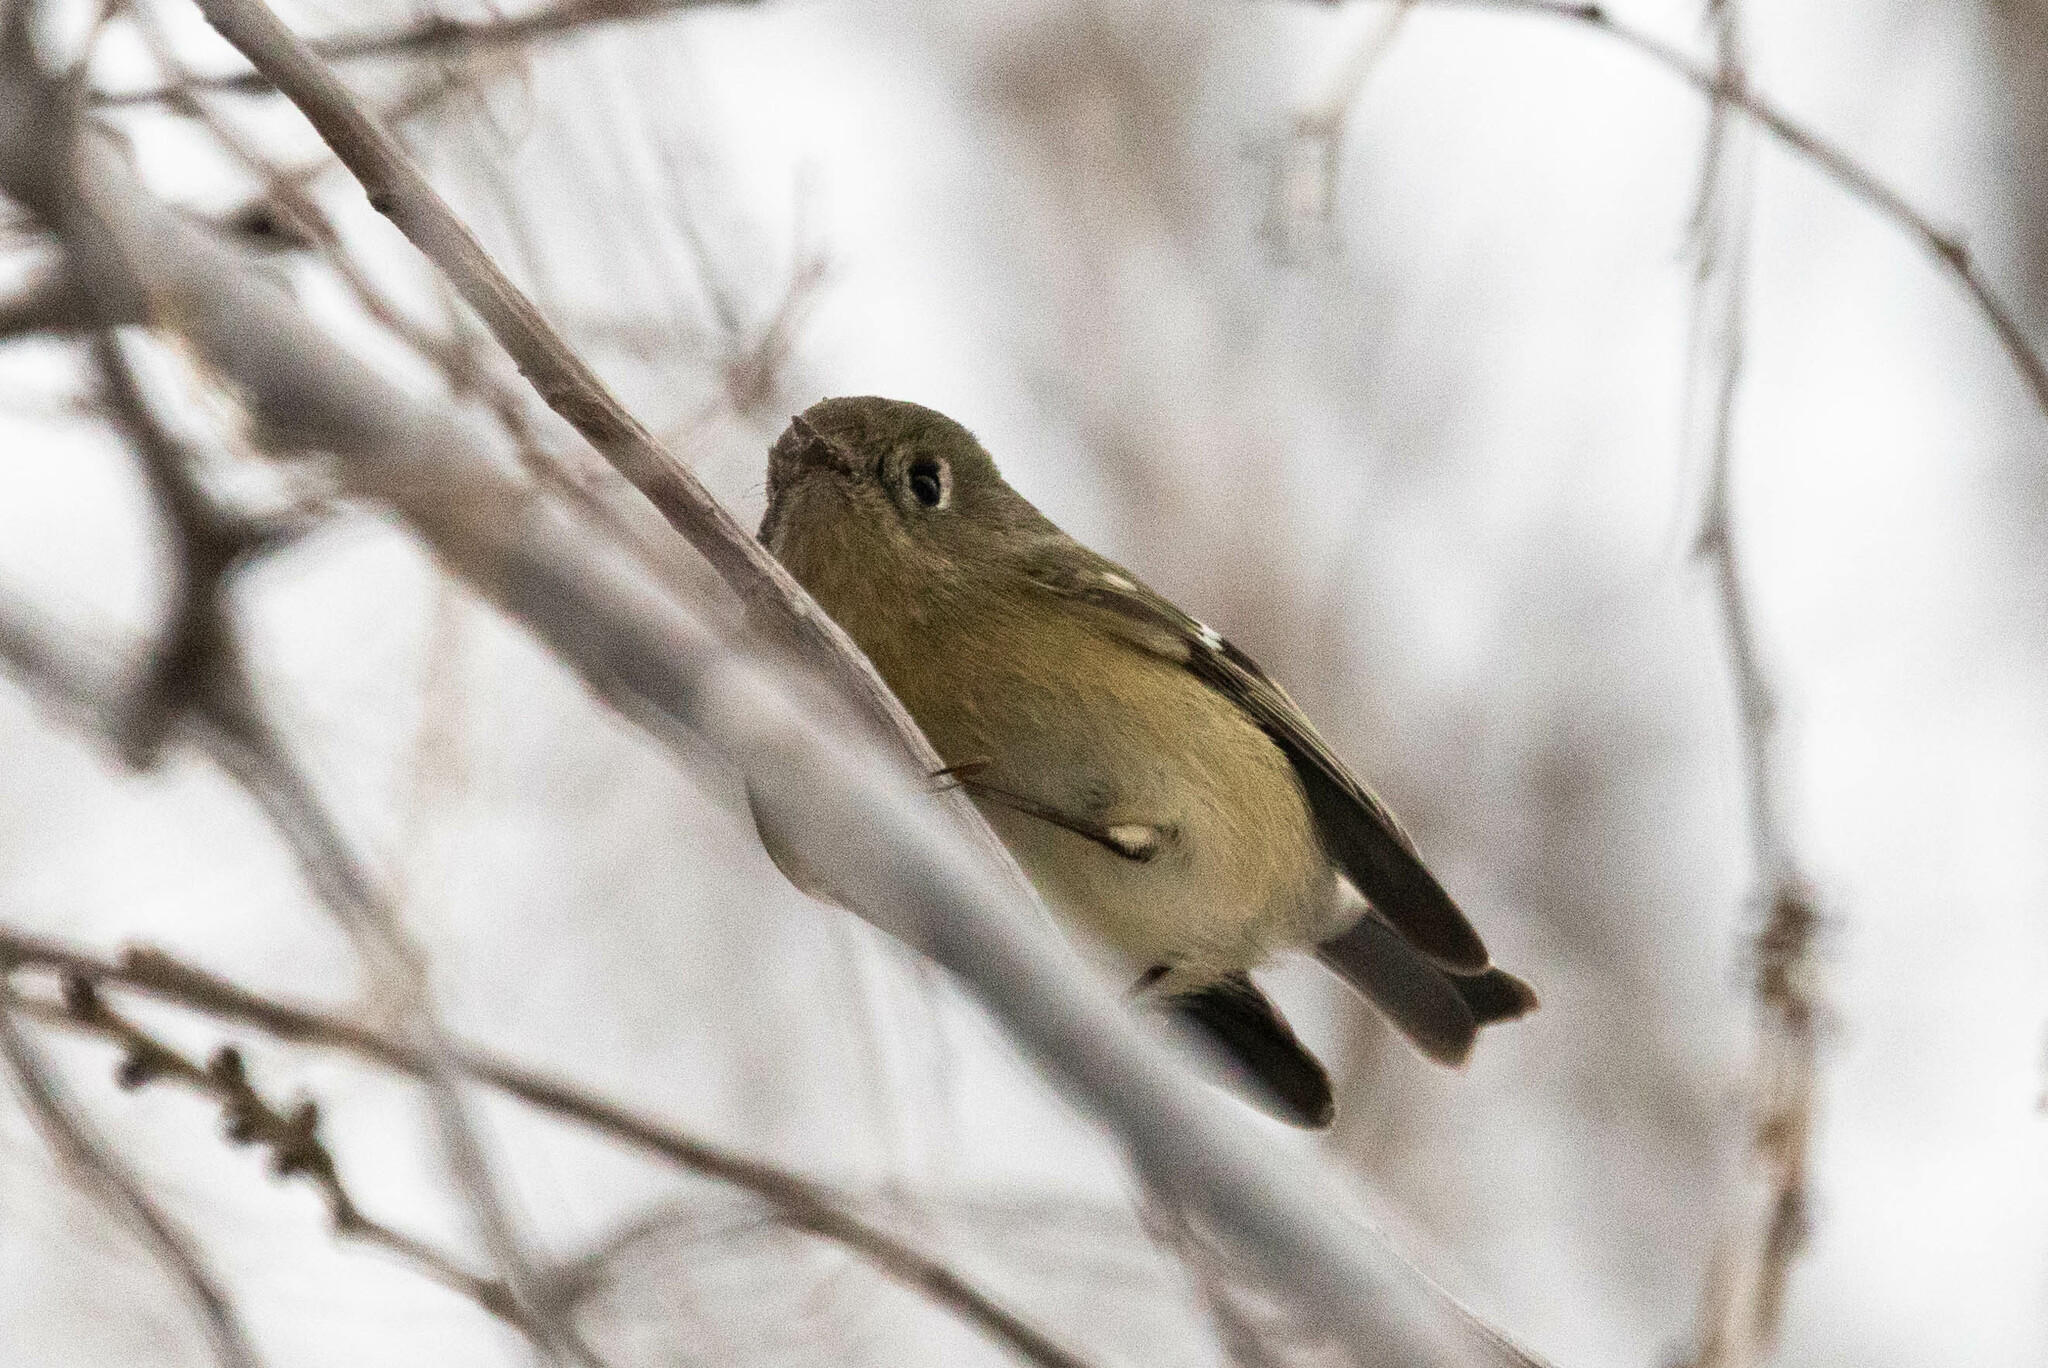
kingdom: Animalia
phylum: Chordata
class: Aves
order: Passeriformes
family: Regulidae
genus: Regulus
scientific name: Regulus calendula
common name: Ruby-crowned kinglet
